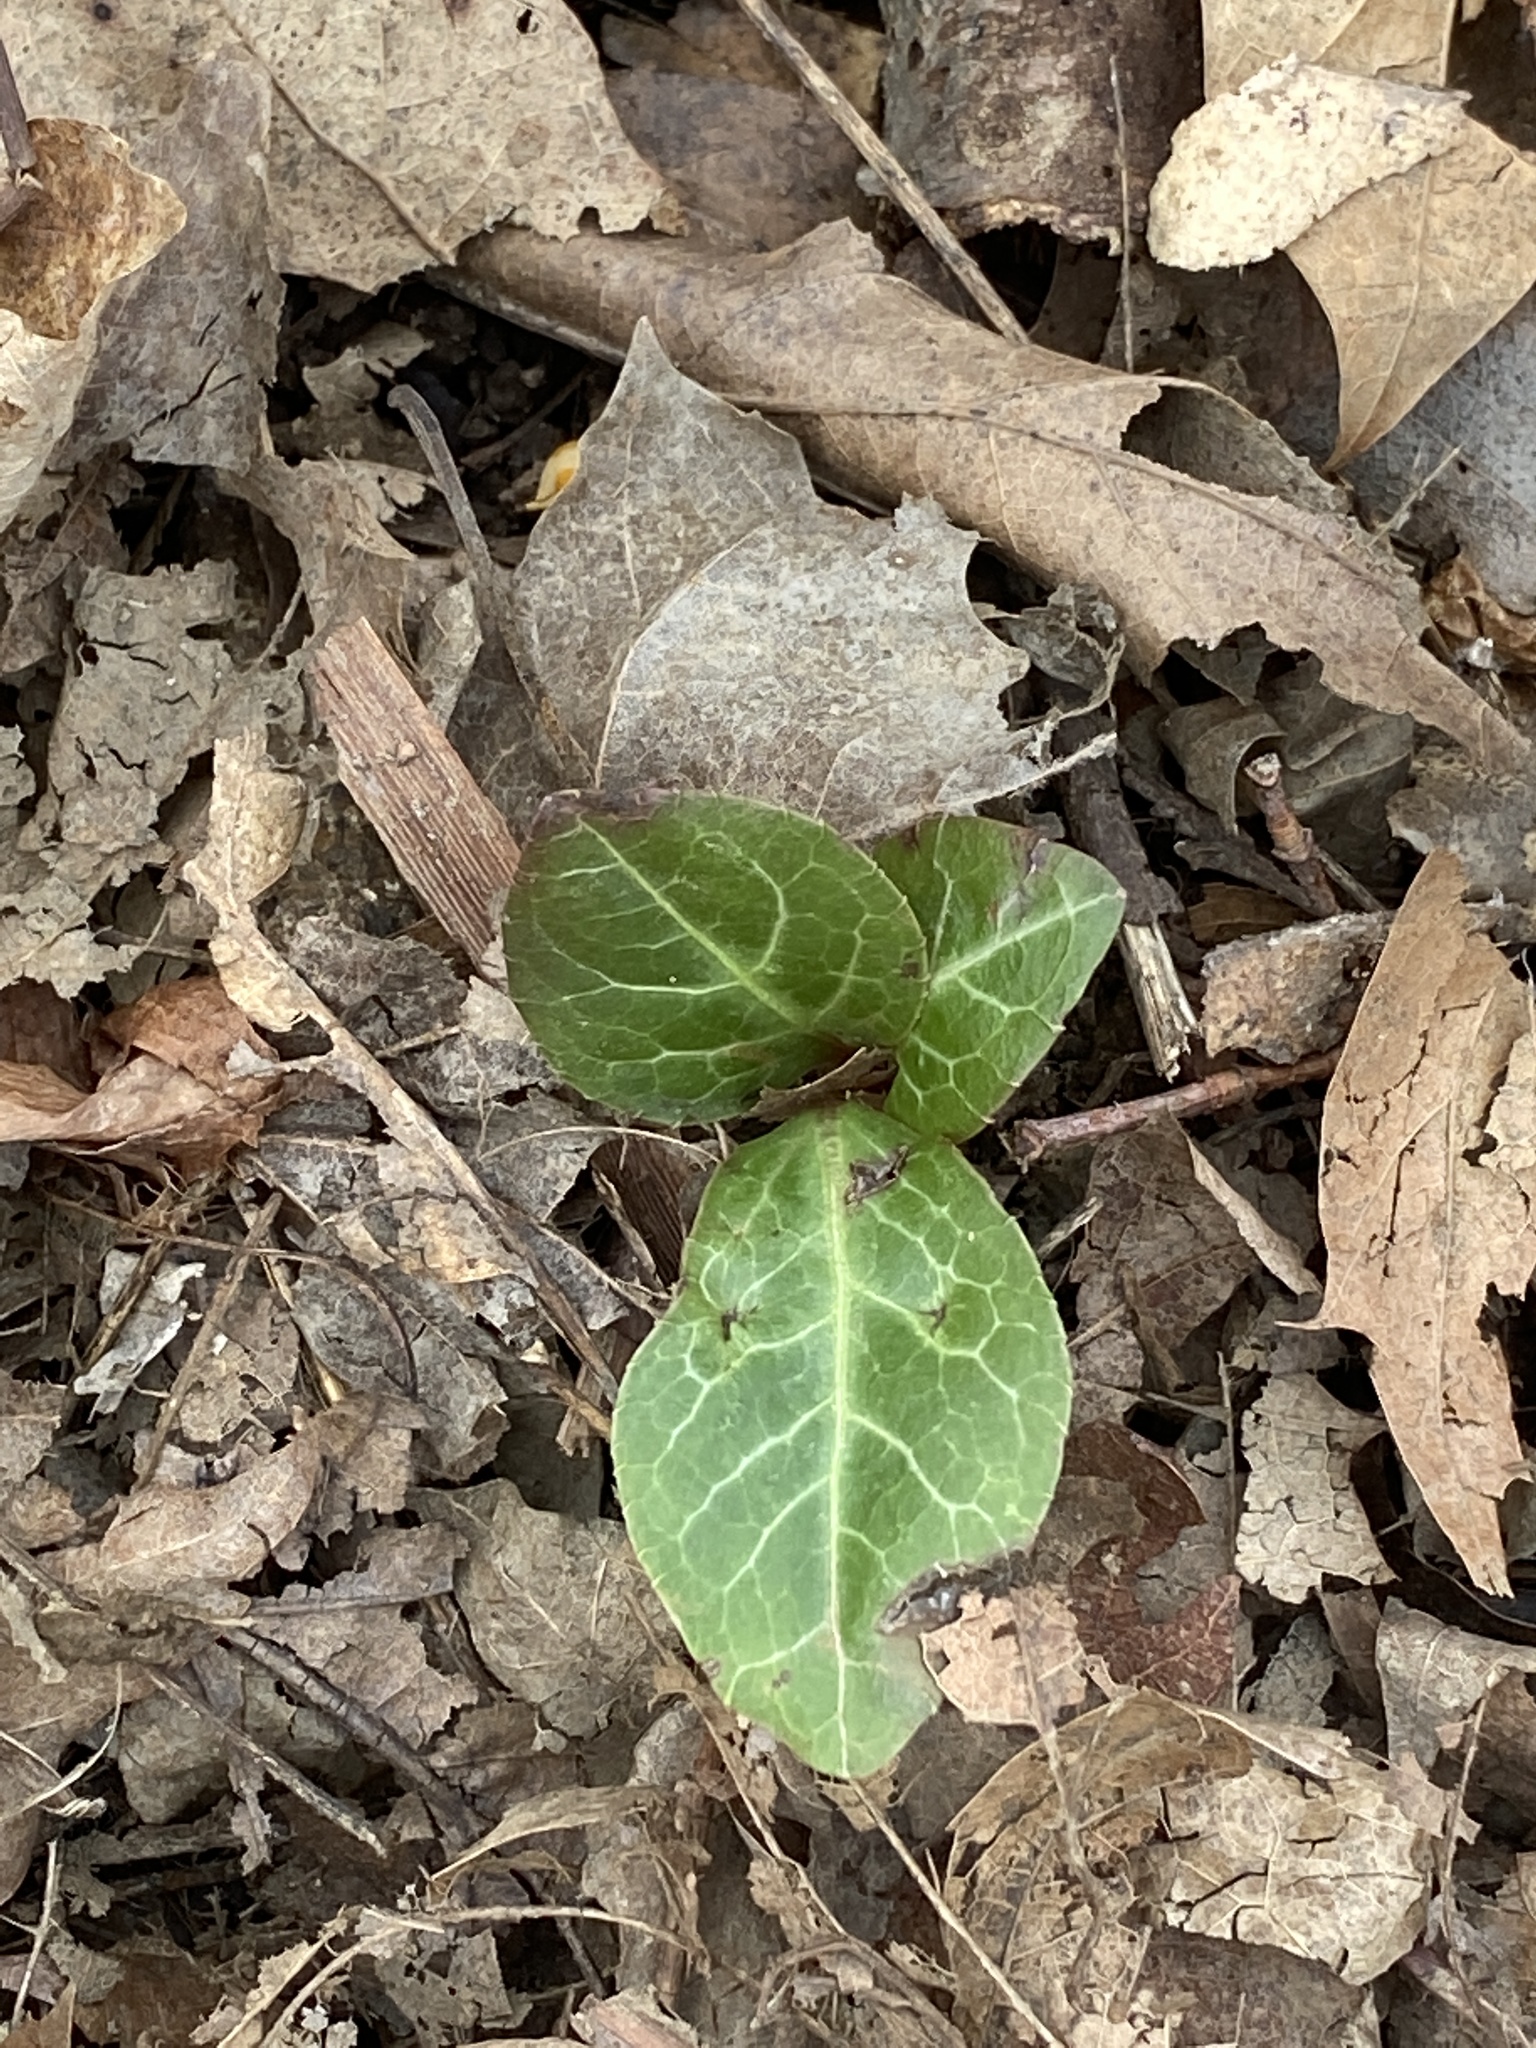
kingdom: Plantae
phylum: Tracheophyta
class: Magnoliopsida
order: Ericales
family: Ericaceae
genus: Pyrola
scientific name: Pyrola americana
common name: American wintergreen
